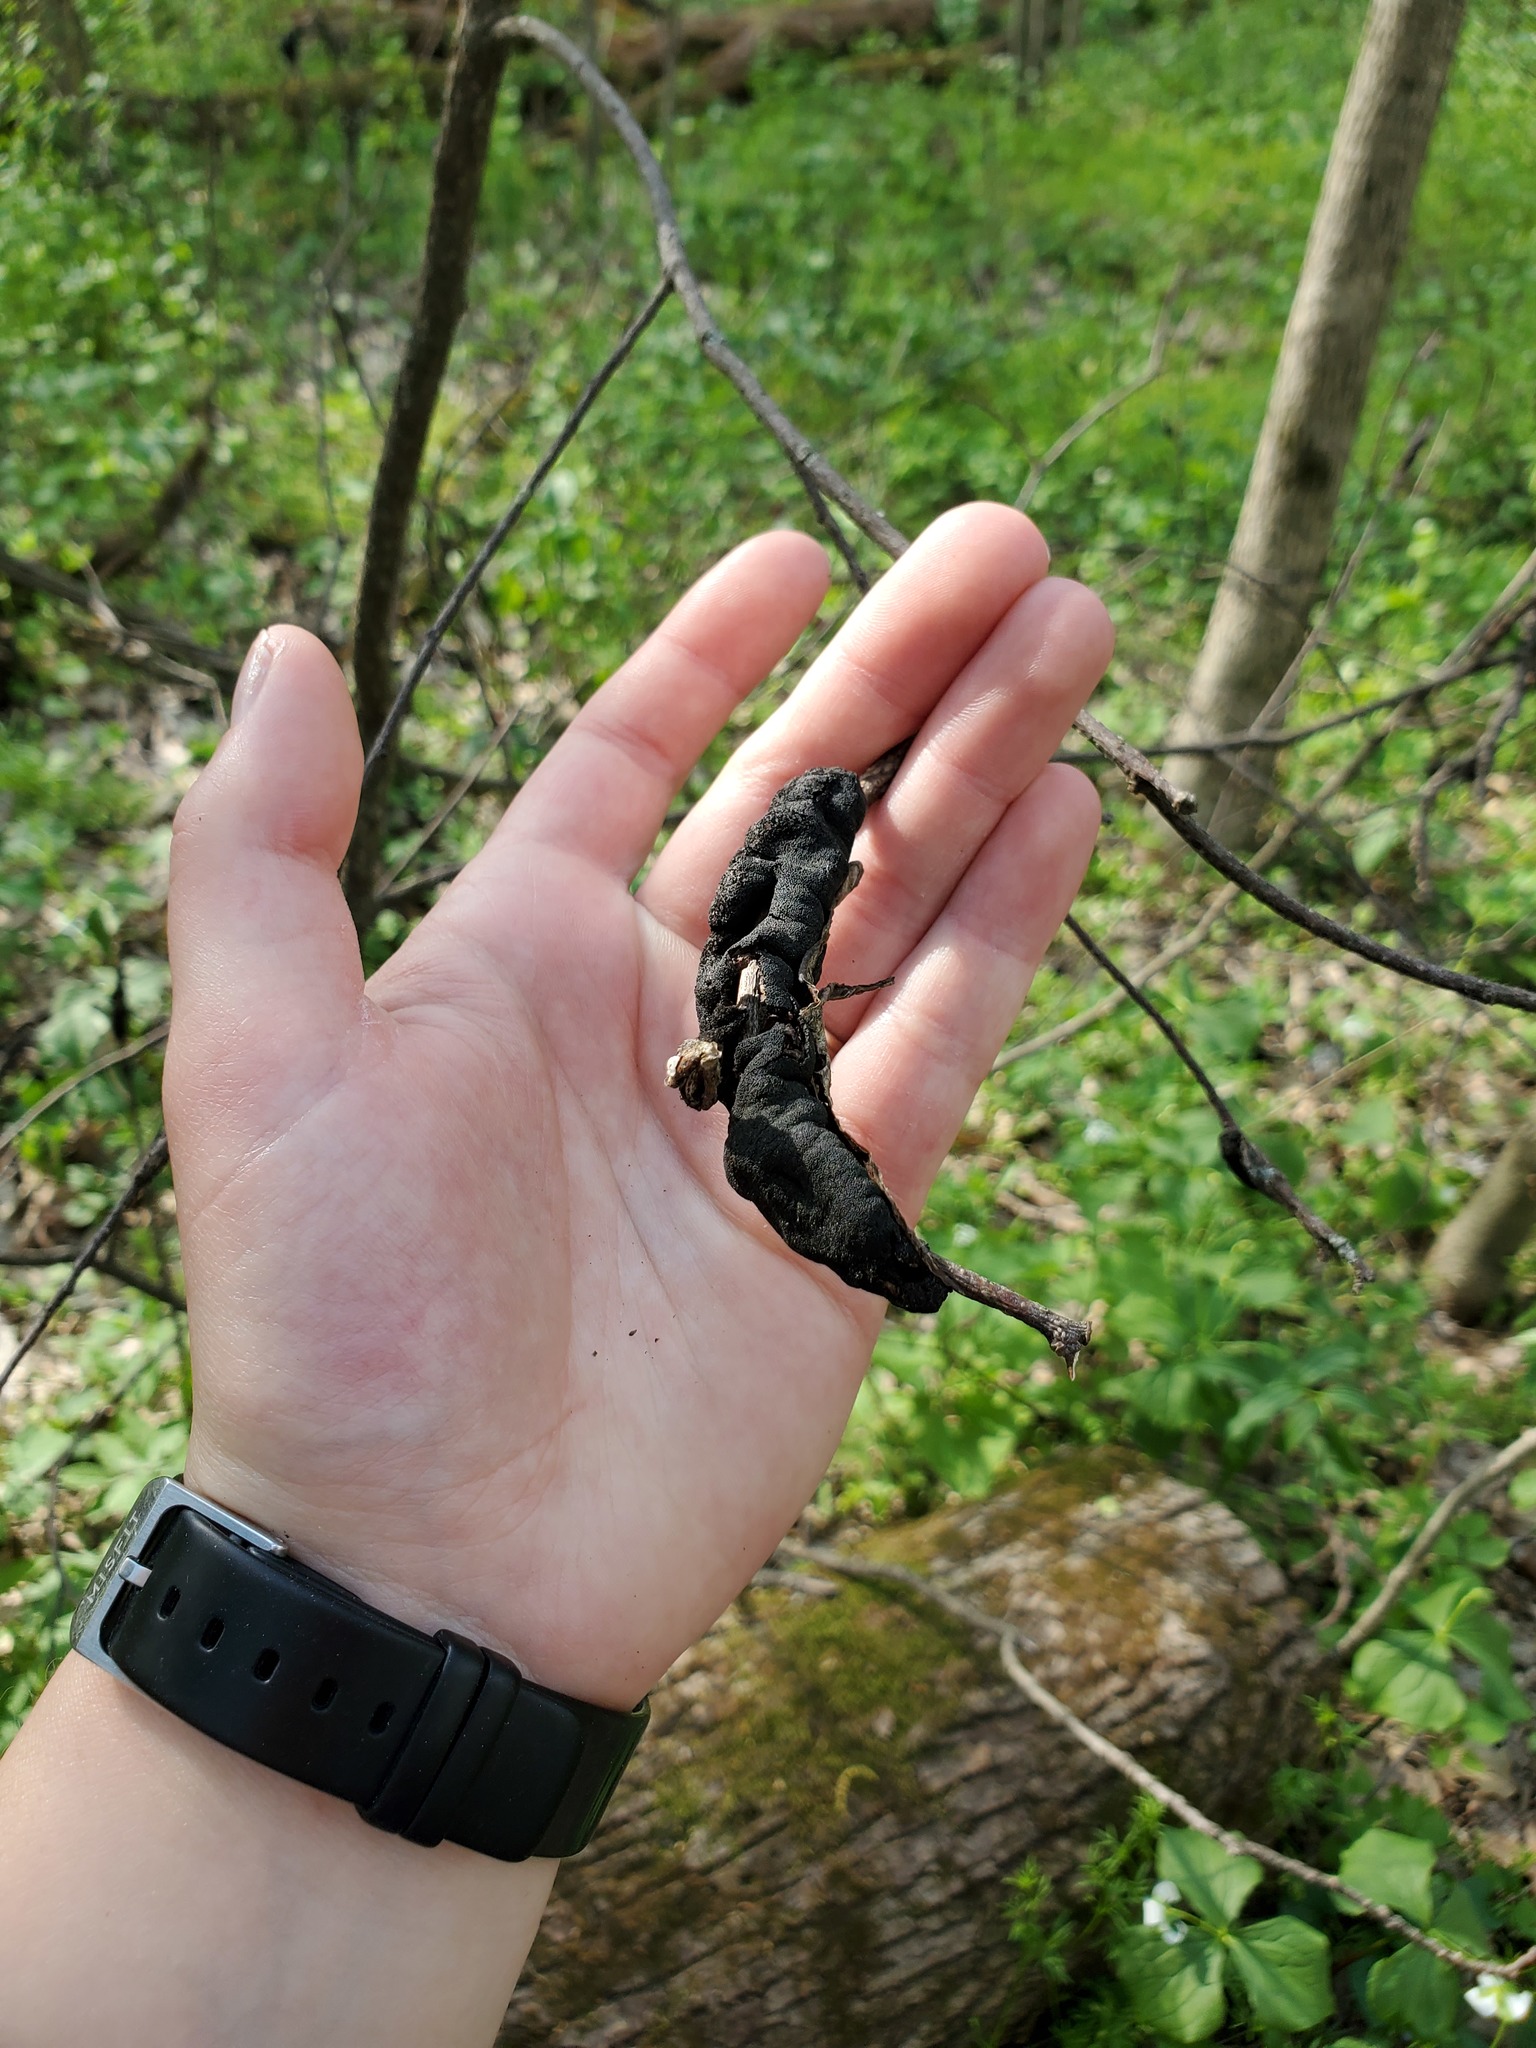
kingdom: Fungi
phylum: Ascomycota
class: Dothideomycetes
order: Venturiales
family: Venturiaceae
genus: Apiosporina
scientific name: Apiosporina morbosa
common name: Black knot
